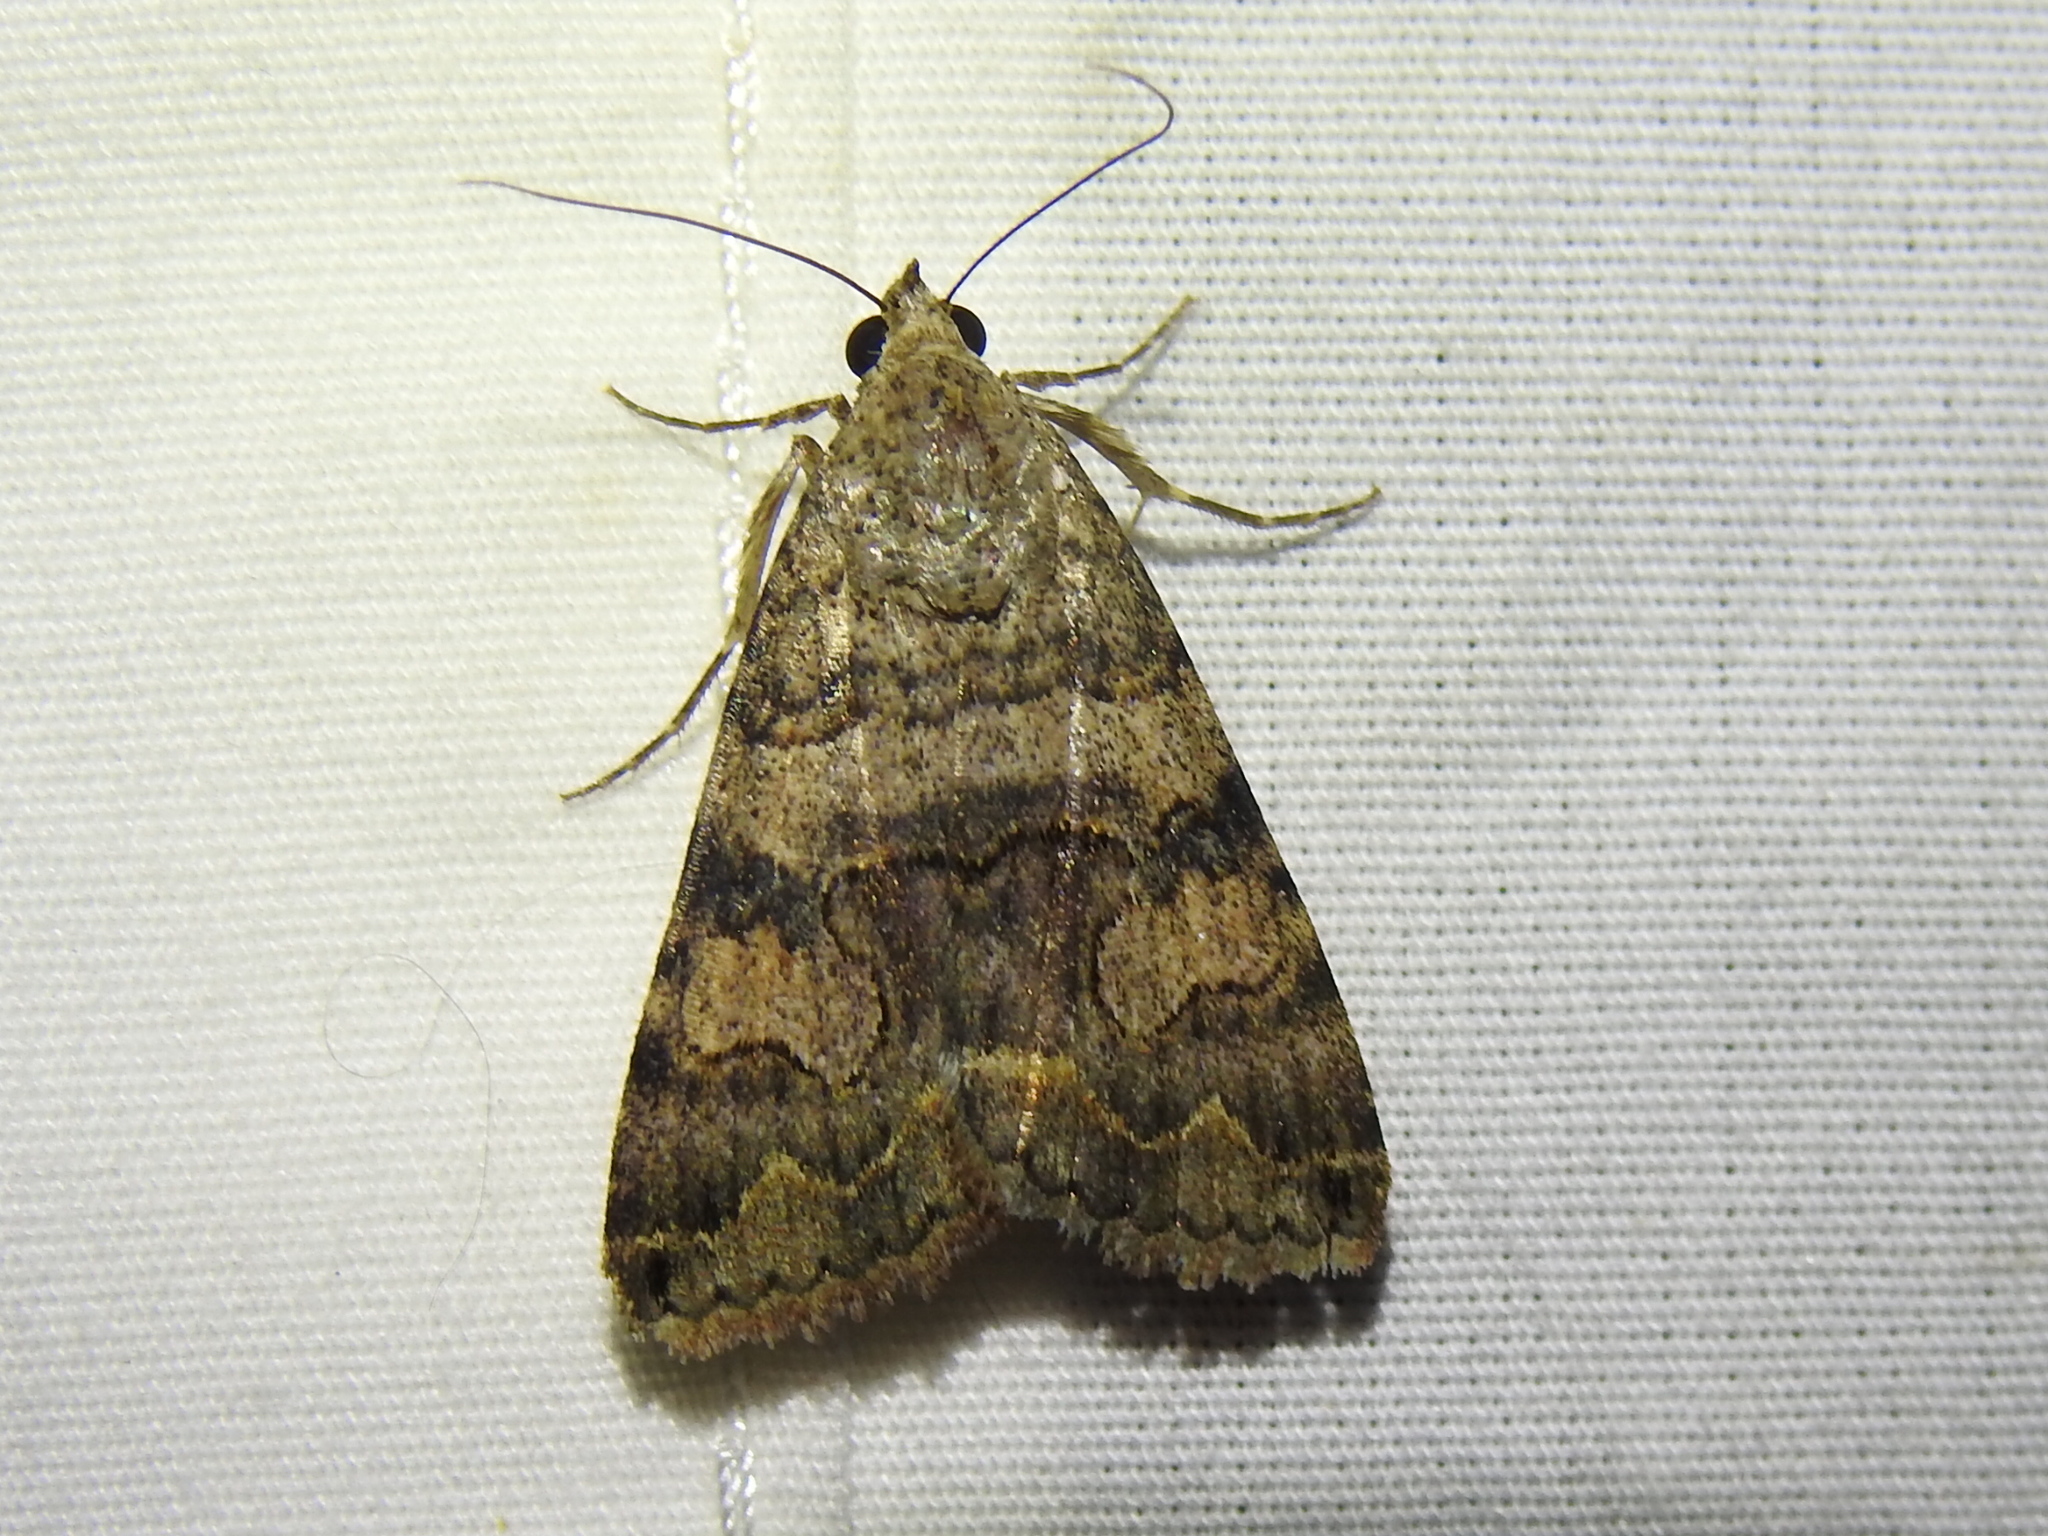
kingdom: Animalia
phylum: Arthropoda
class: Insecta
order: Lepidoptera
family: Erebidae
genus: Bulia
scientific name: Bulia deducta
